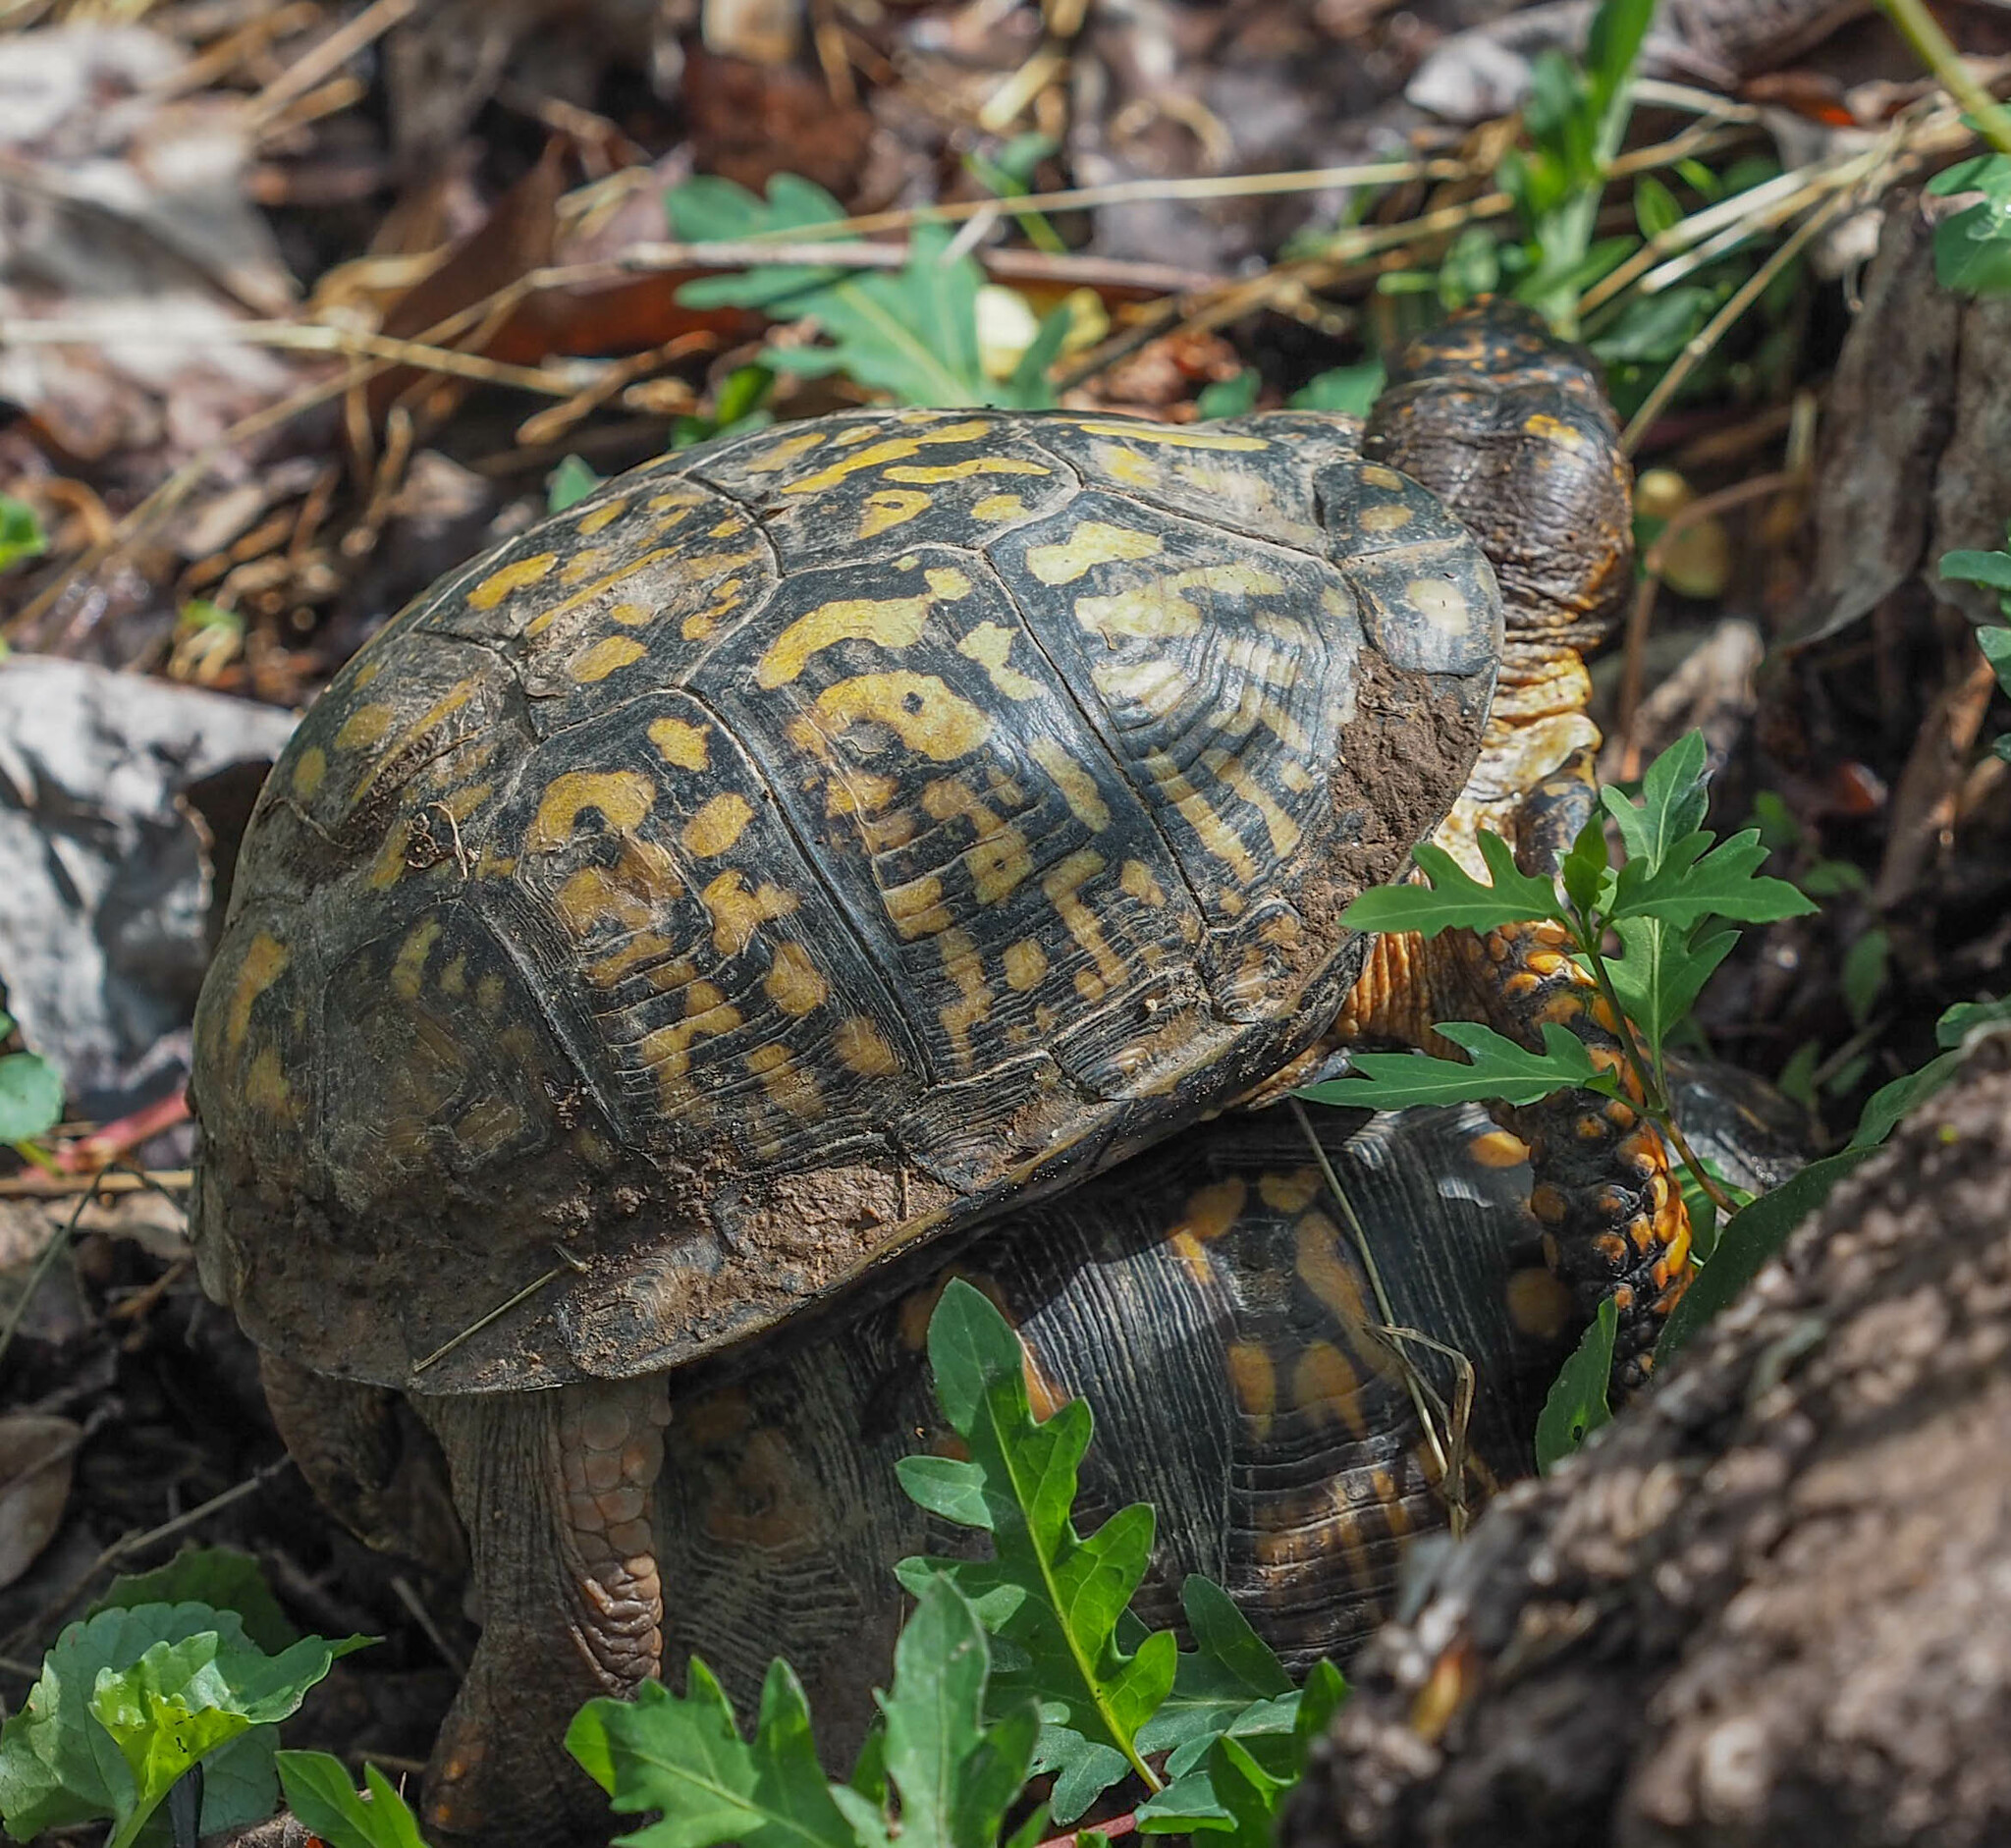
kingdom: Animalia
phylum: Chordata
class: Testudines
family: Emydidae
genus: Terrapene
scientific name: Terrapene carolina
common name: Common box turtle
